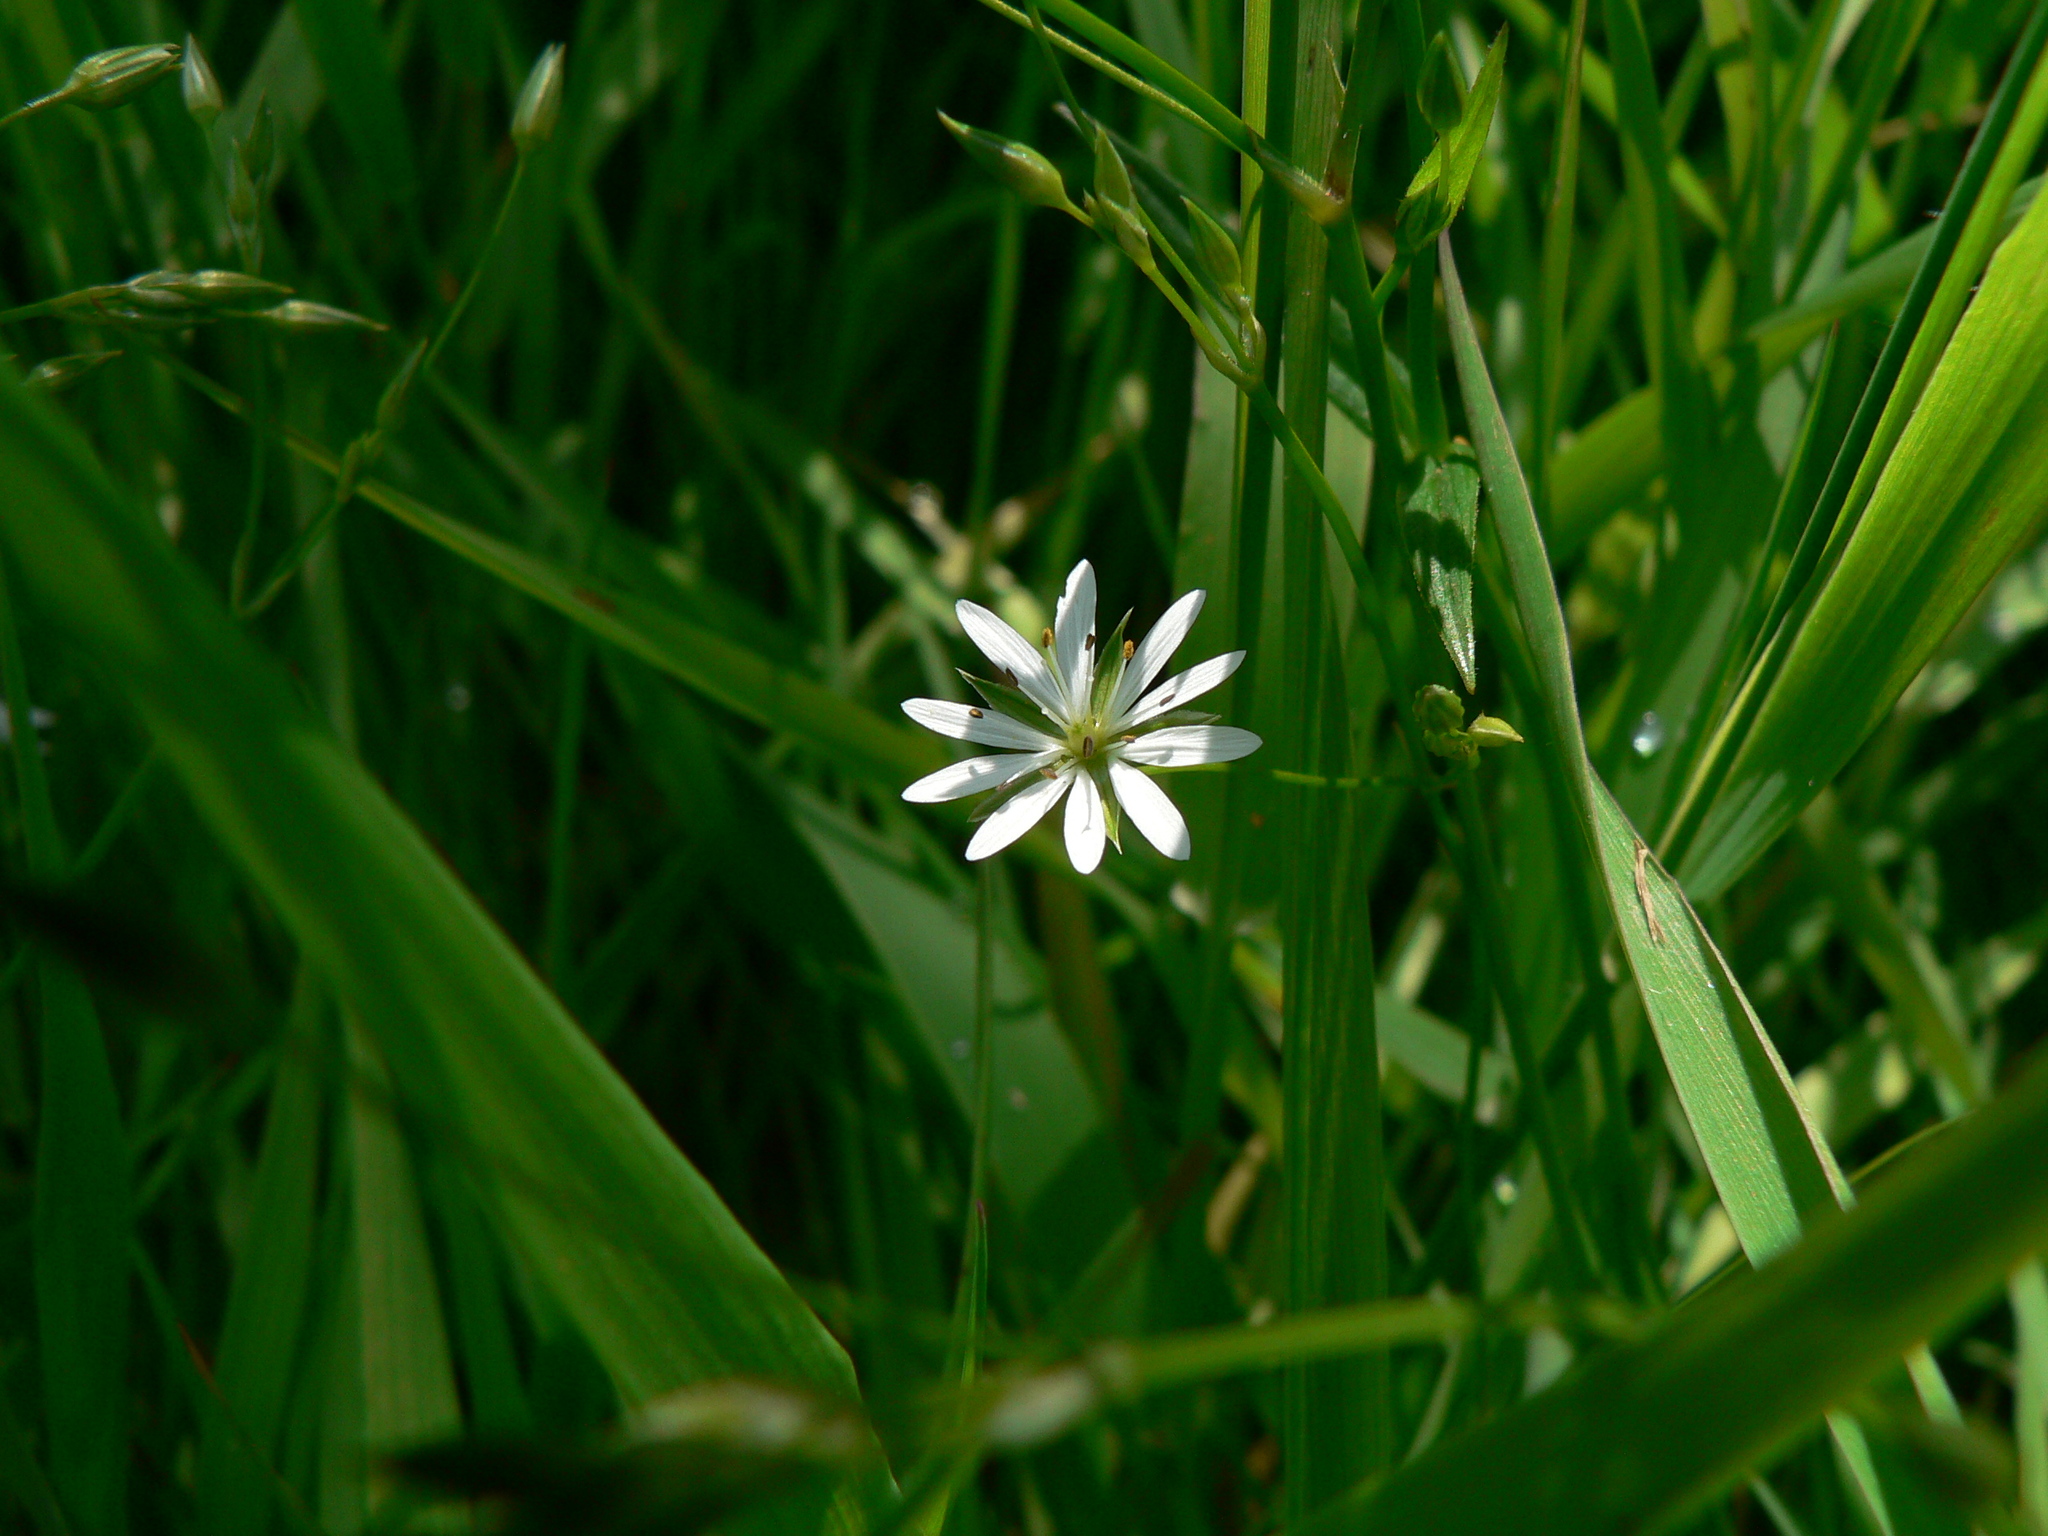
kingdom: Plantae
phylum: Tracheophyta
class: Magnoliopsida
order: Caryophyllales
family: Caryophyllaceae
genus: Stellaria
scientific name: Stellaria graminea
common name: Grass-like starwort
